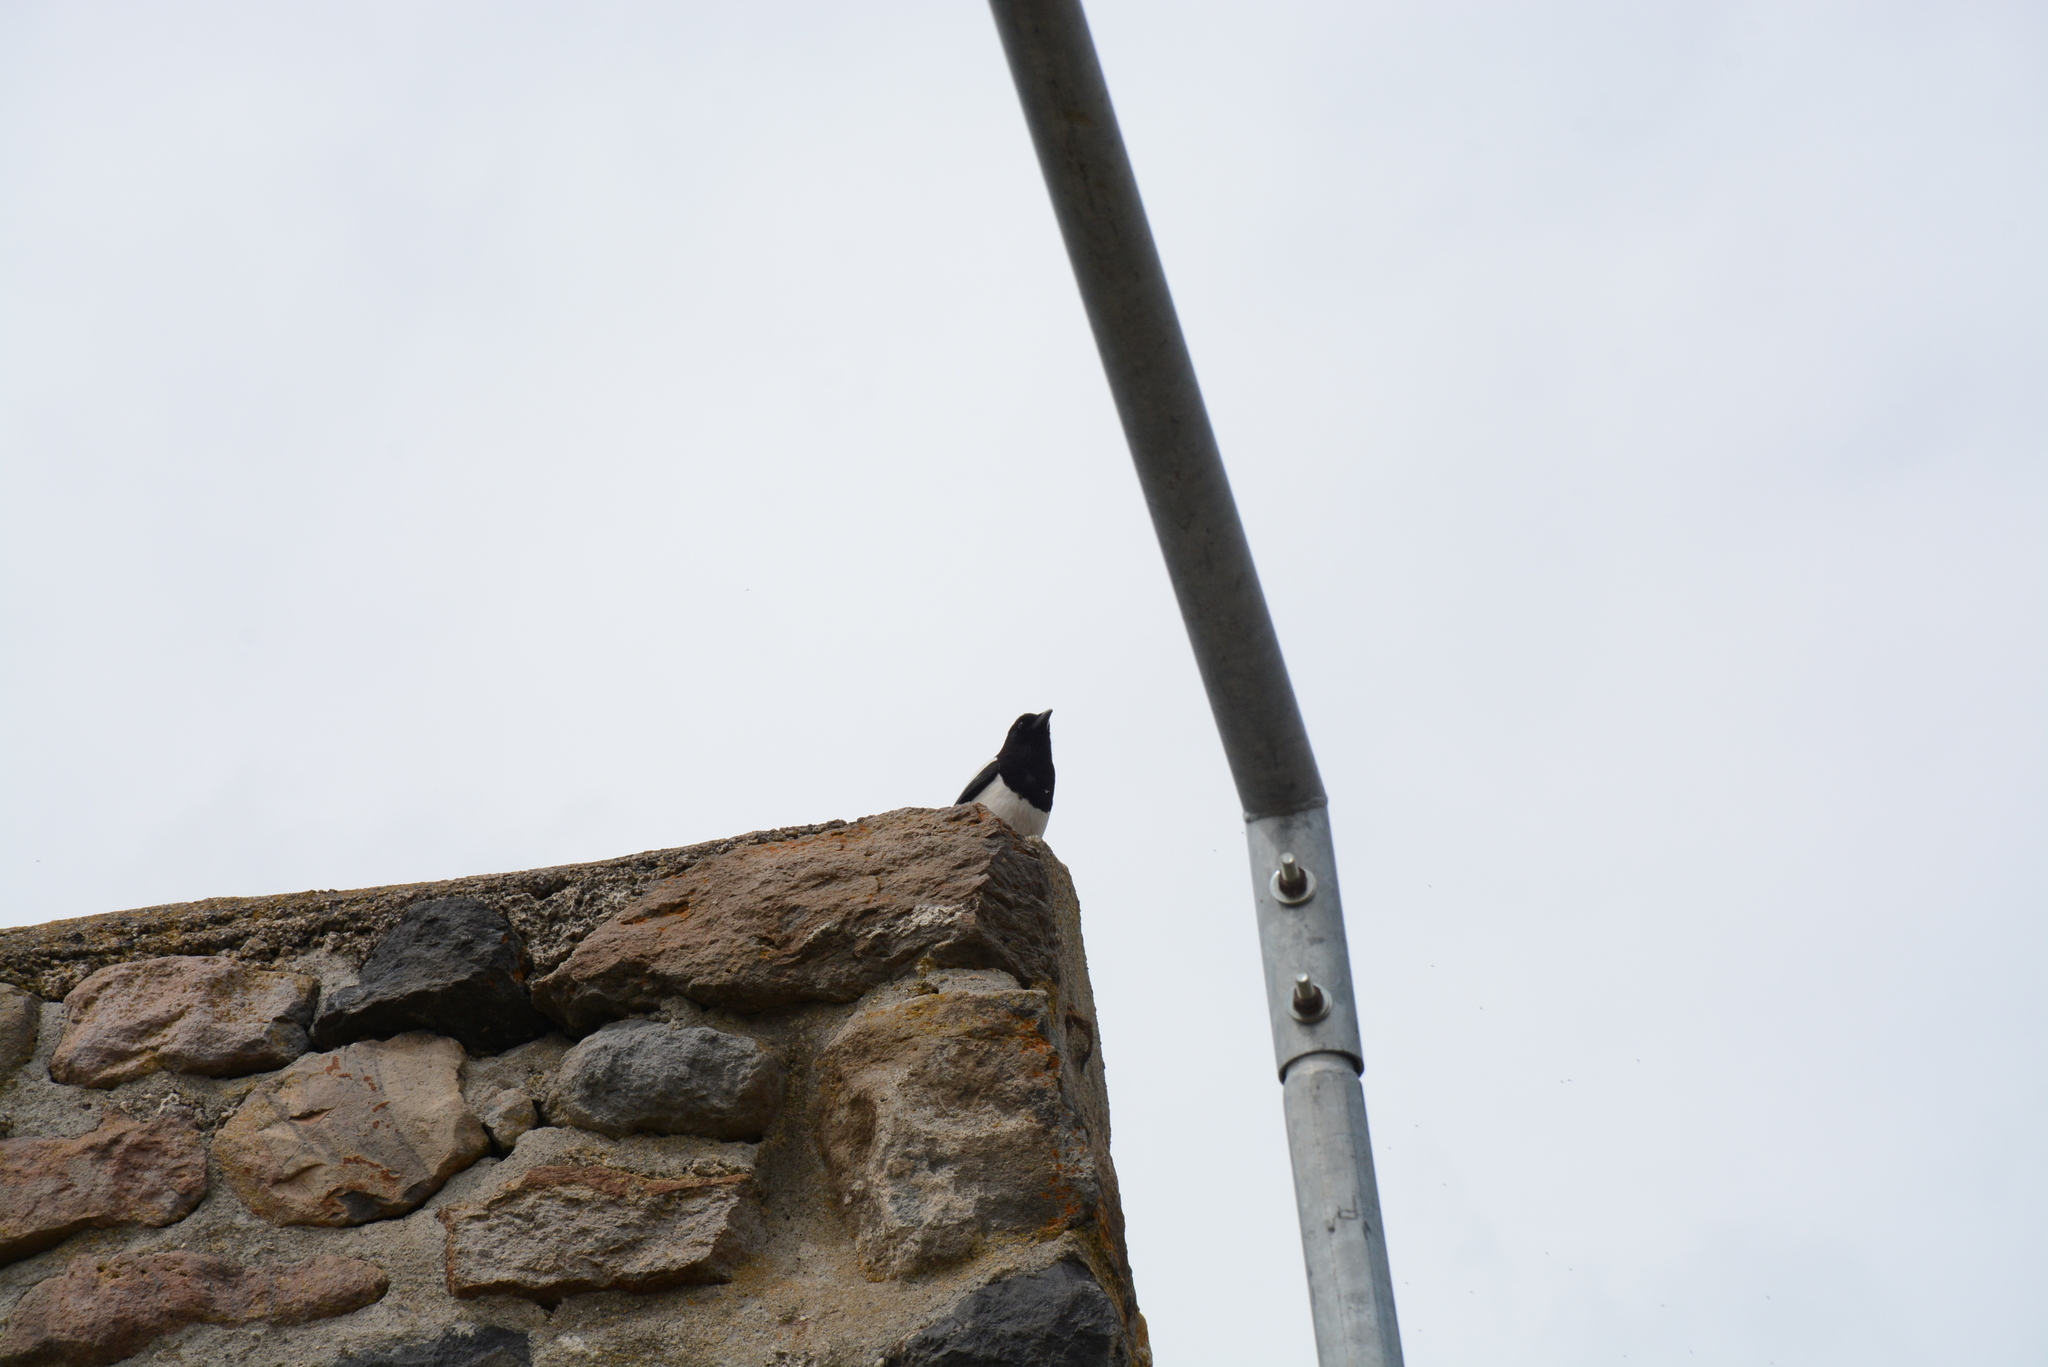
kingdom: Animalia
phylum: Chordata
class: Aves
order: Passeriformes
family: Corvidae
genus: Pica
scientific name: Pica pica
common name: Eurasian magpie
